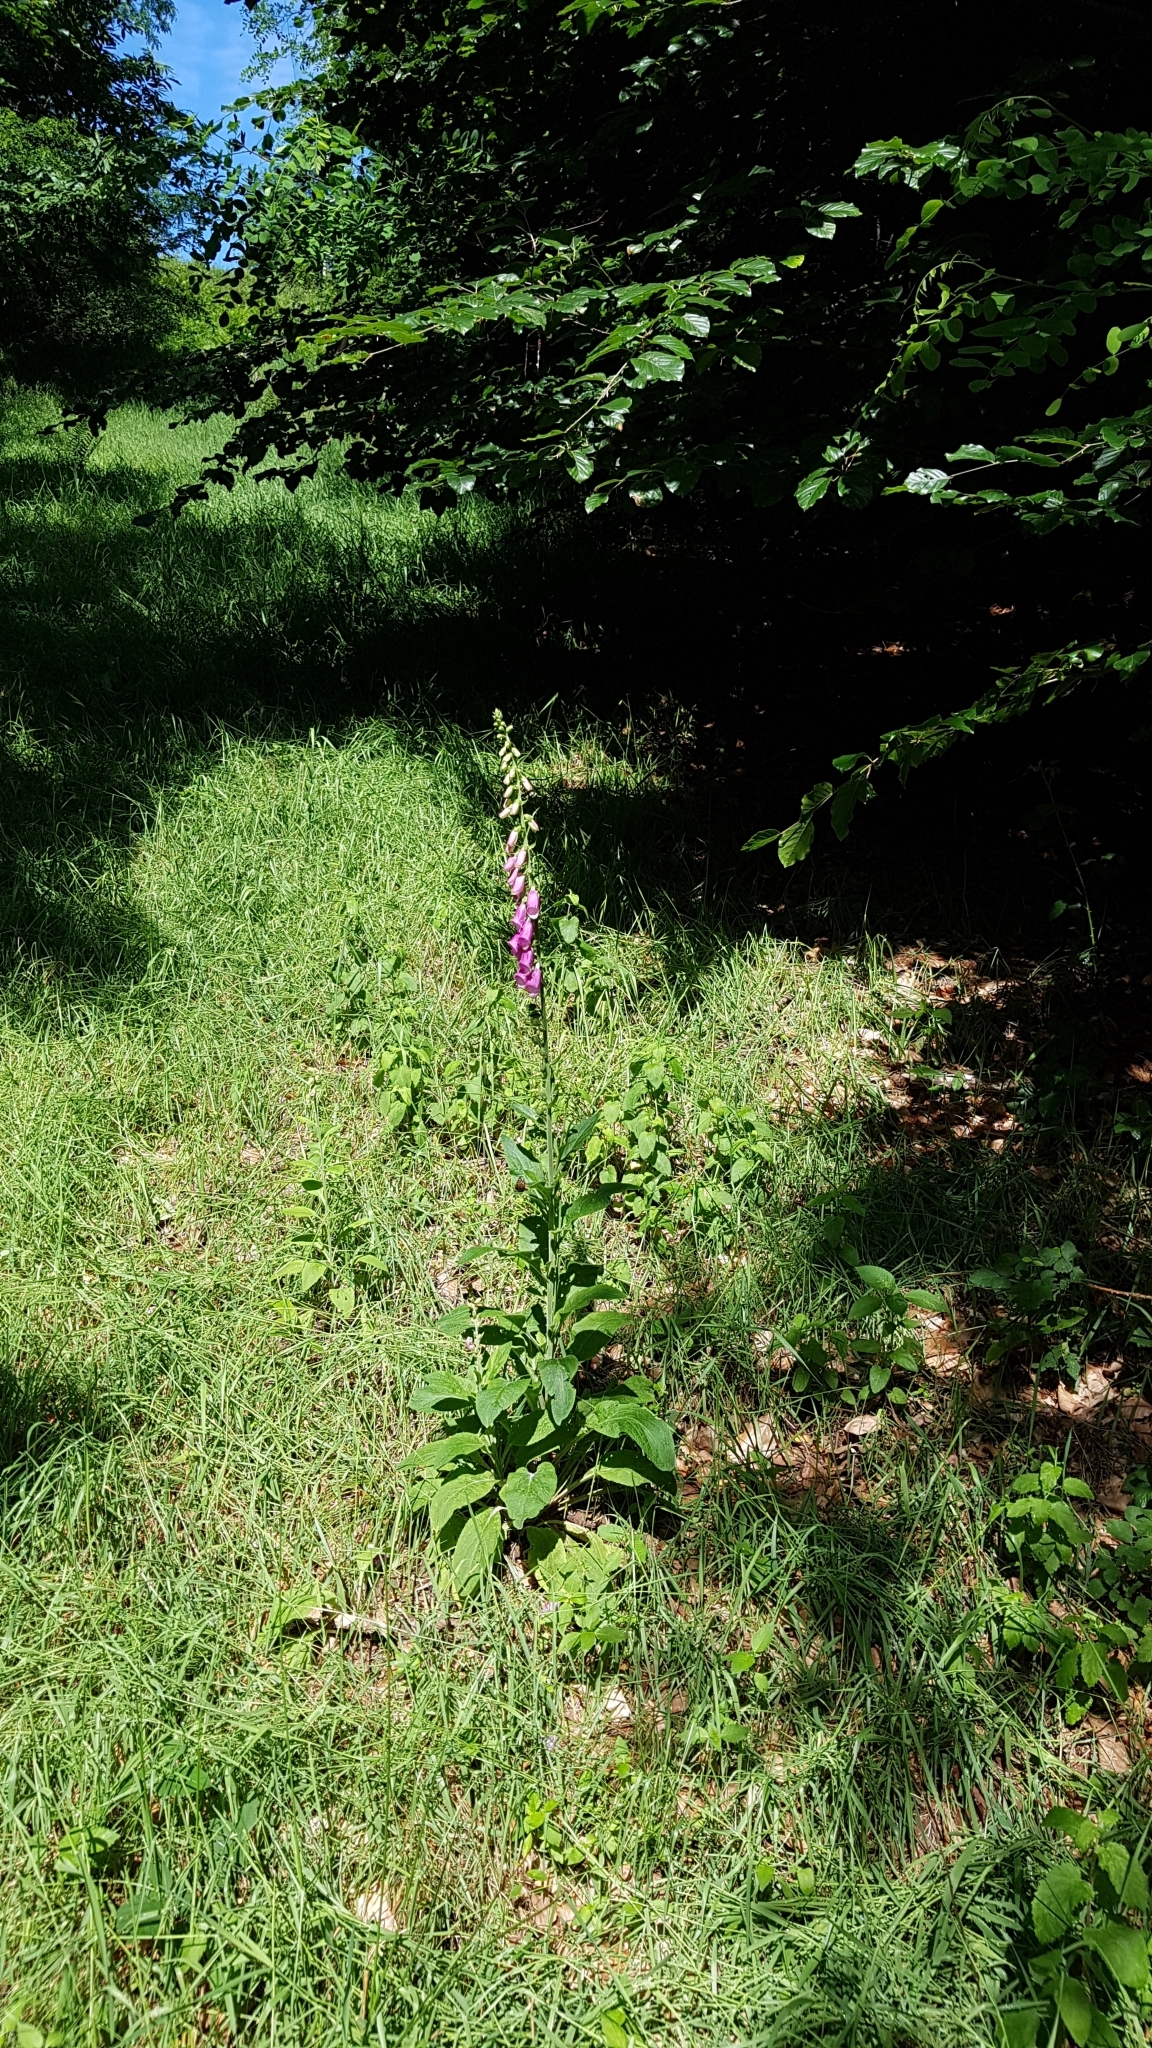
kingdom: Plantae
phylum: Tracheophyta
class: Magnoliopsida
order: Lamiales
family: Plantaginaceae
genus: Digitalis
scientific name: Digitalis purpurea
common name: Foxglove
